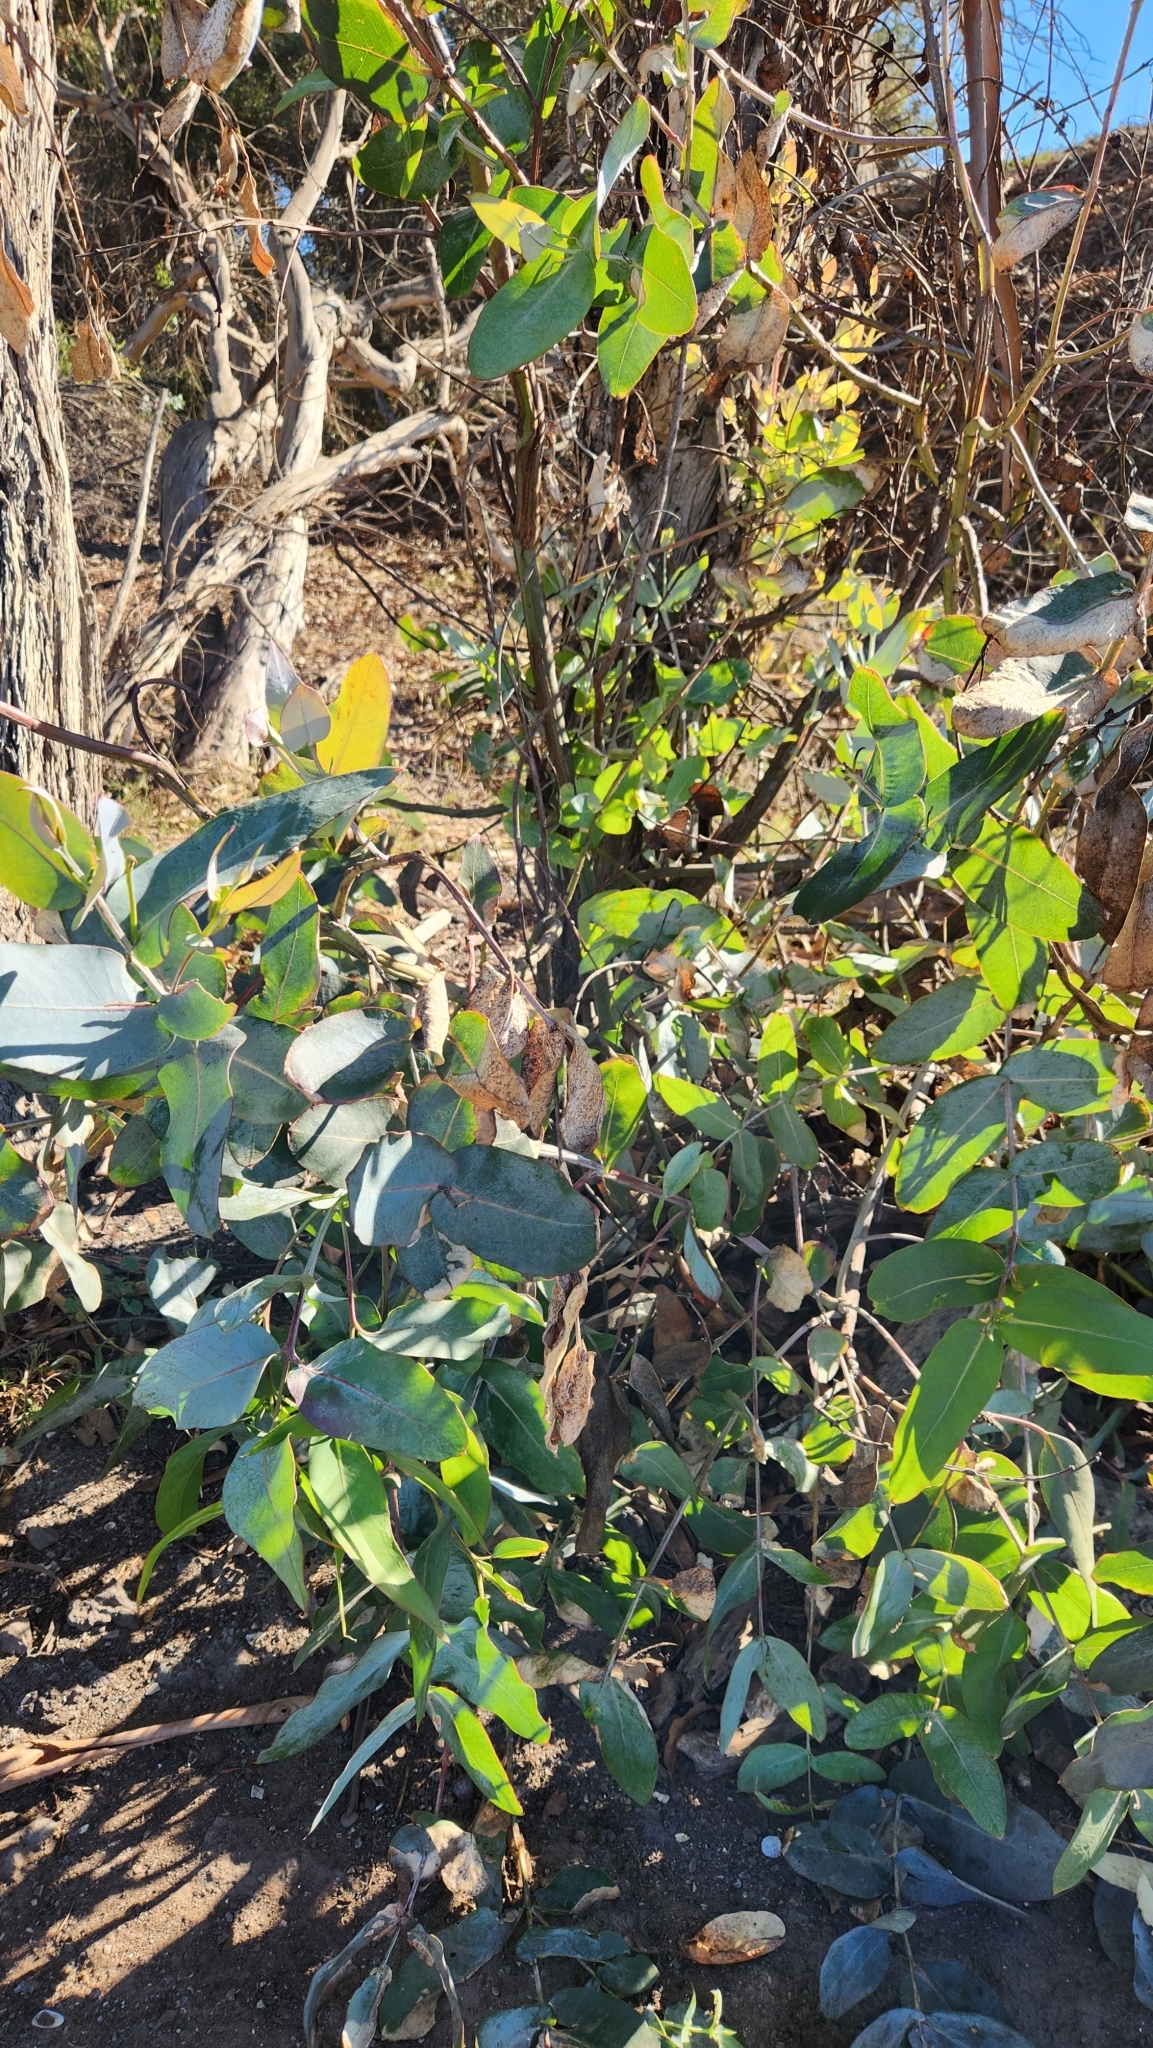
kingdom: Plantae
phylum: Tracheophyta
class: Magnoliopsida
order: Myrtales
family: Myrtaceae
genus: Eucalyptus
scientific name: Eucalyptus globulus
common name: Southern blue-gum
